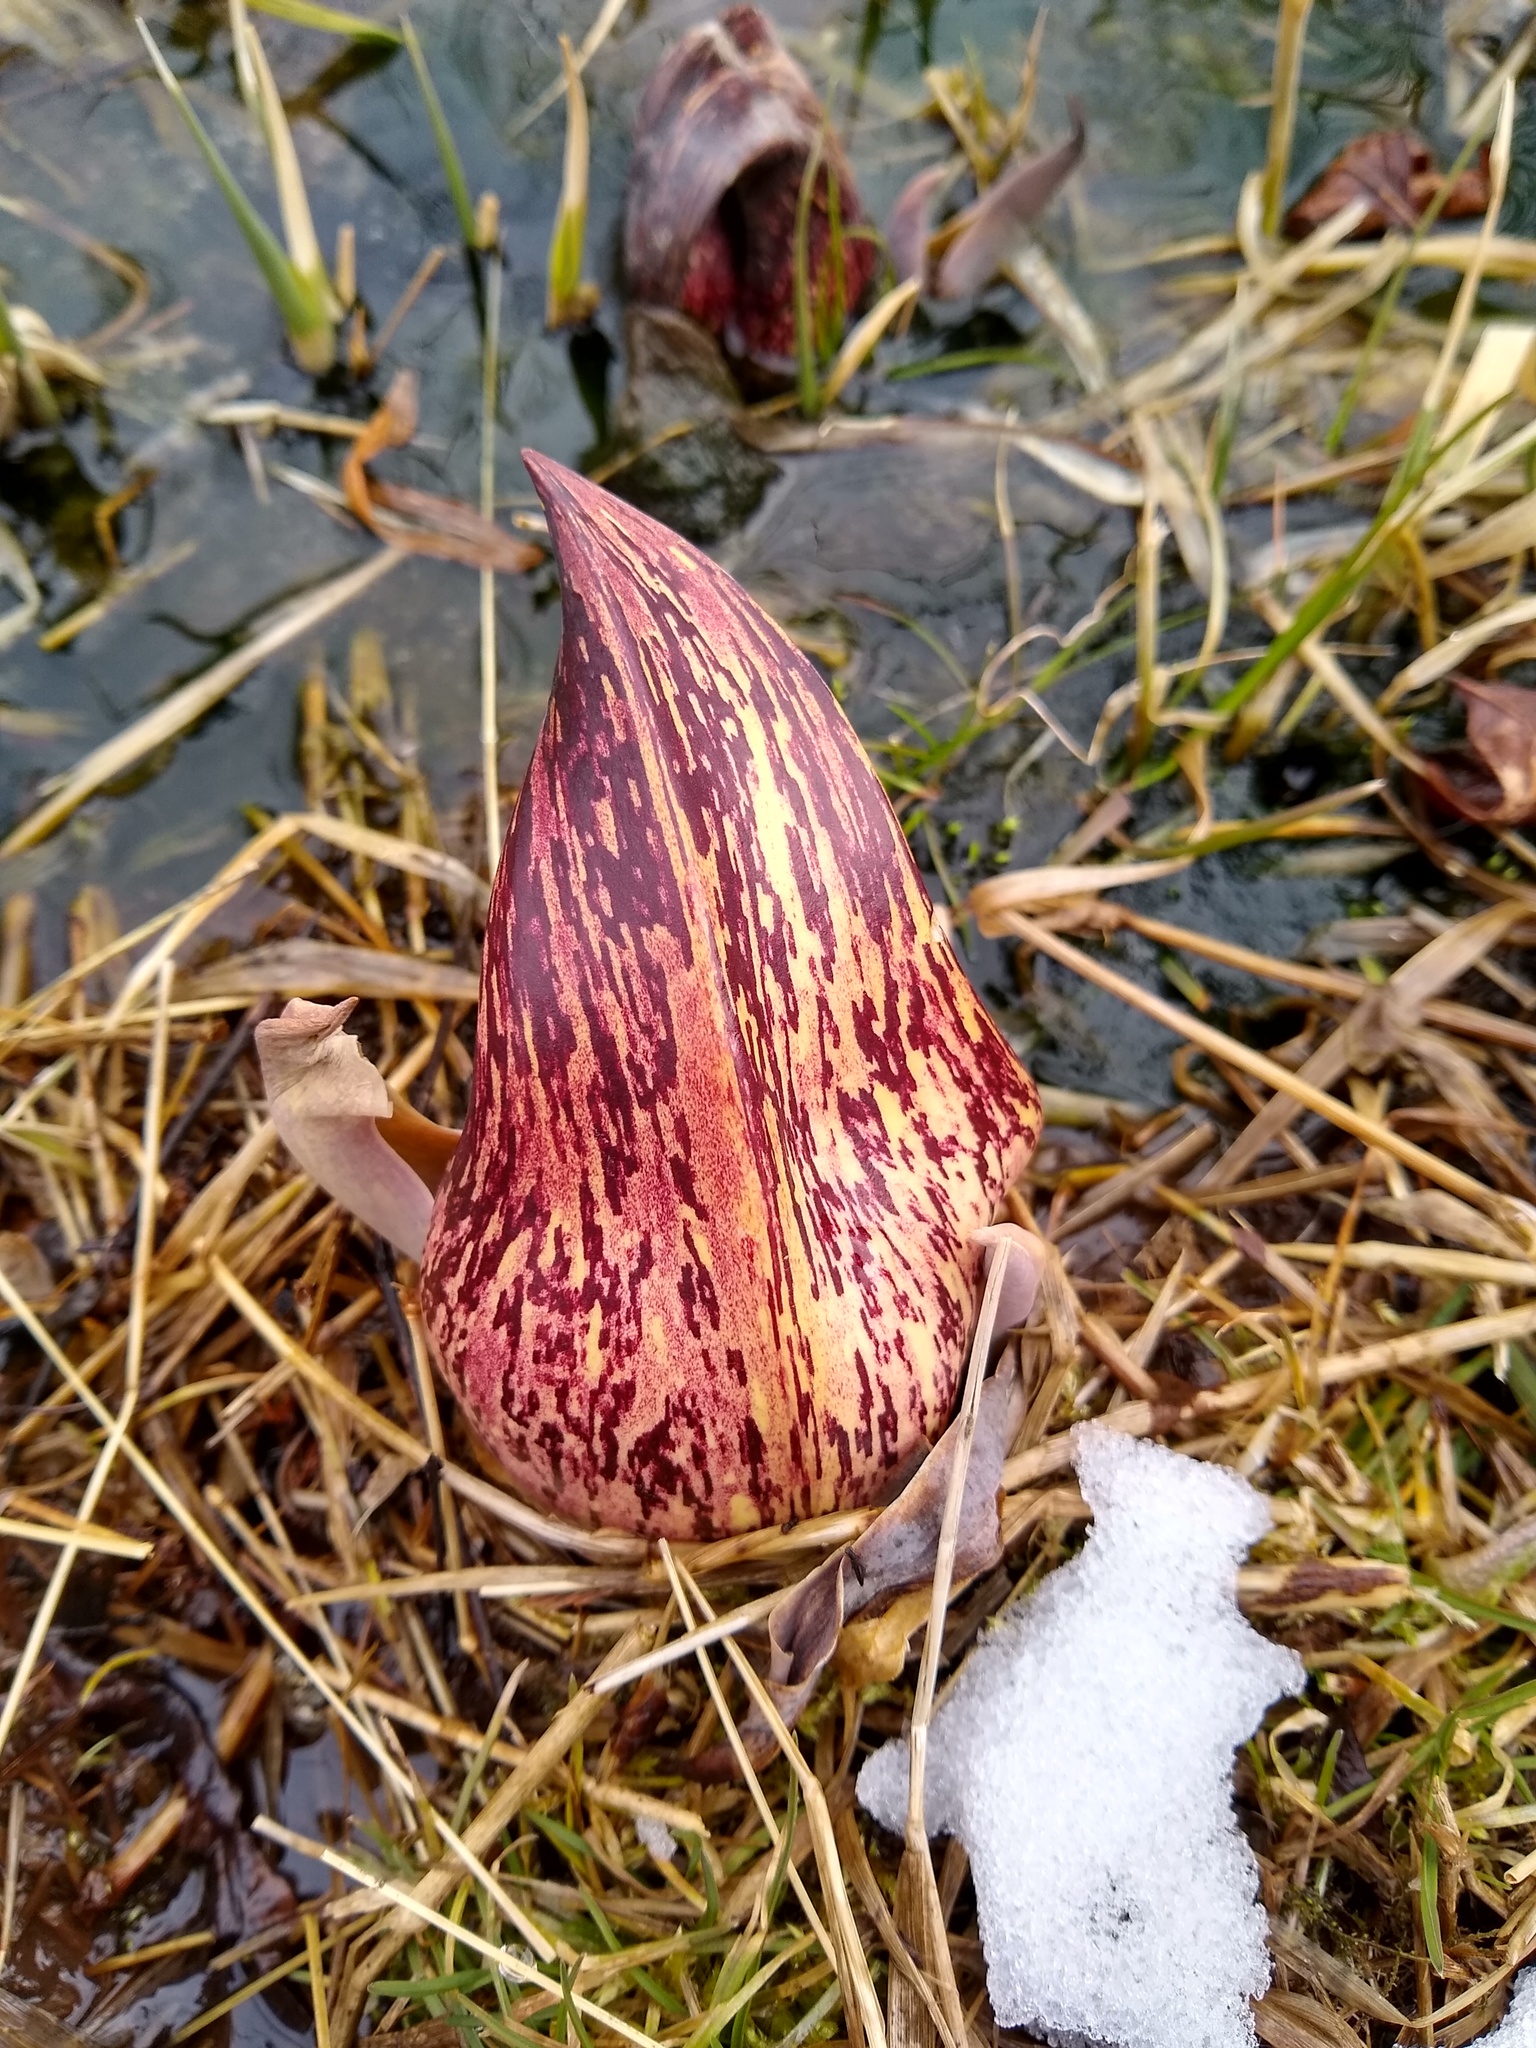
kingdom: Plantae
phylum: Tracheophyta
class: Liliopsida
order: Alismatales
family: Araceae
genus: Symplocarpus
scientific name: Symplocarpus foetidus
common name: Eastern skunk cabbage
